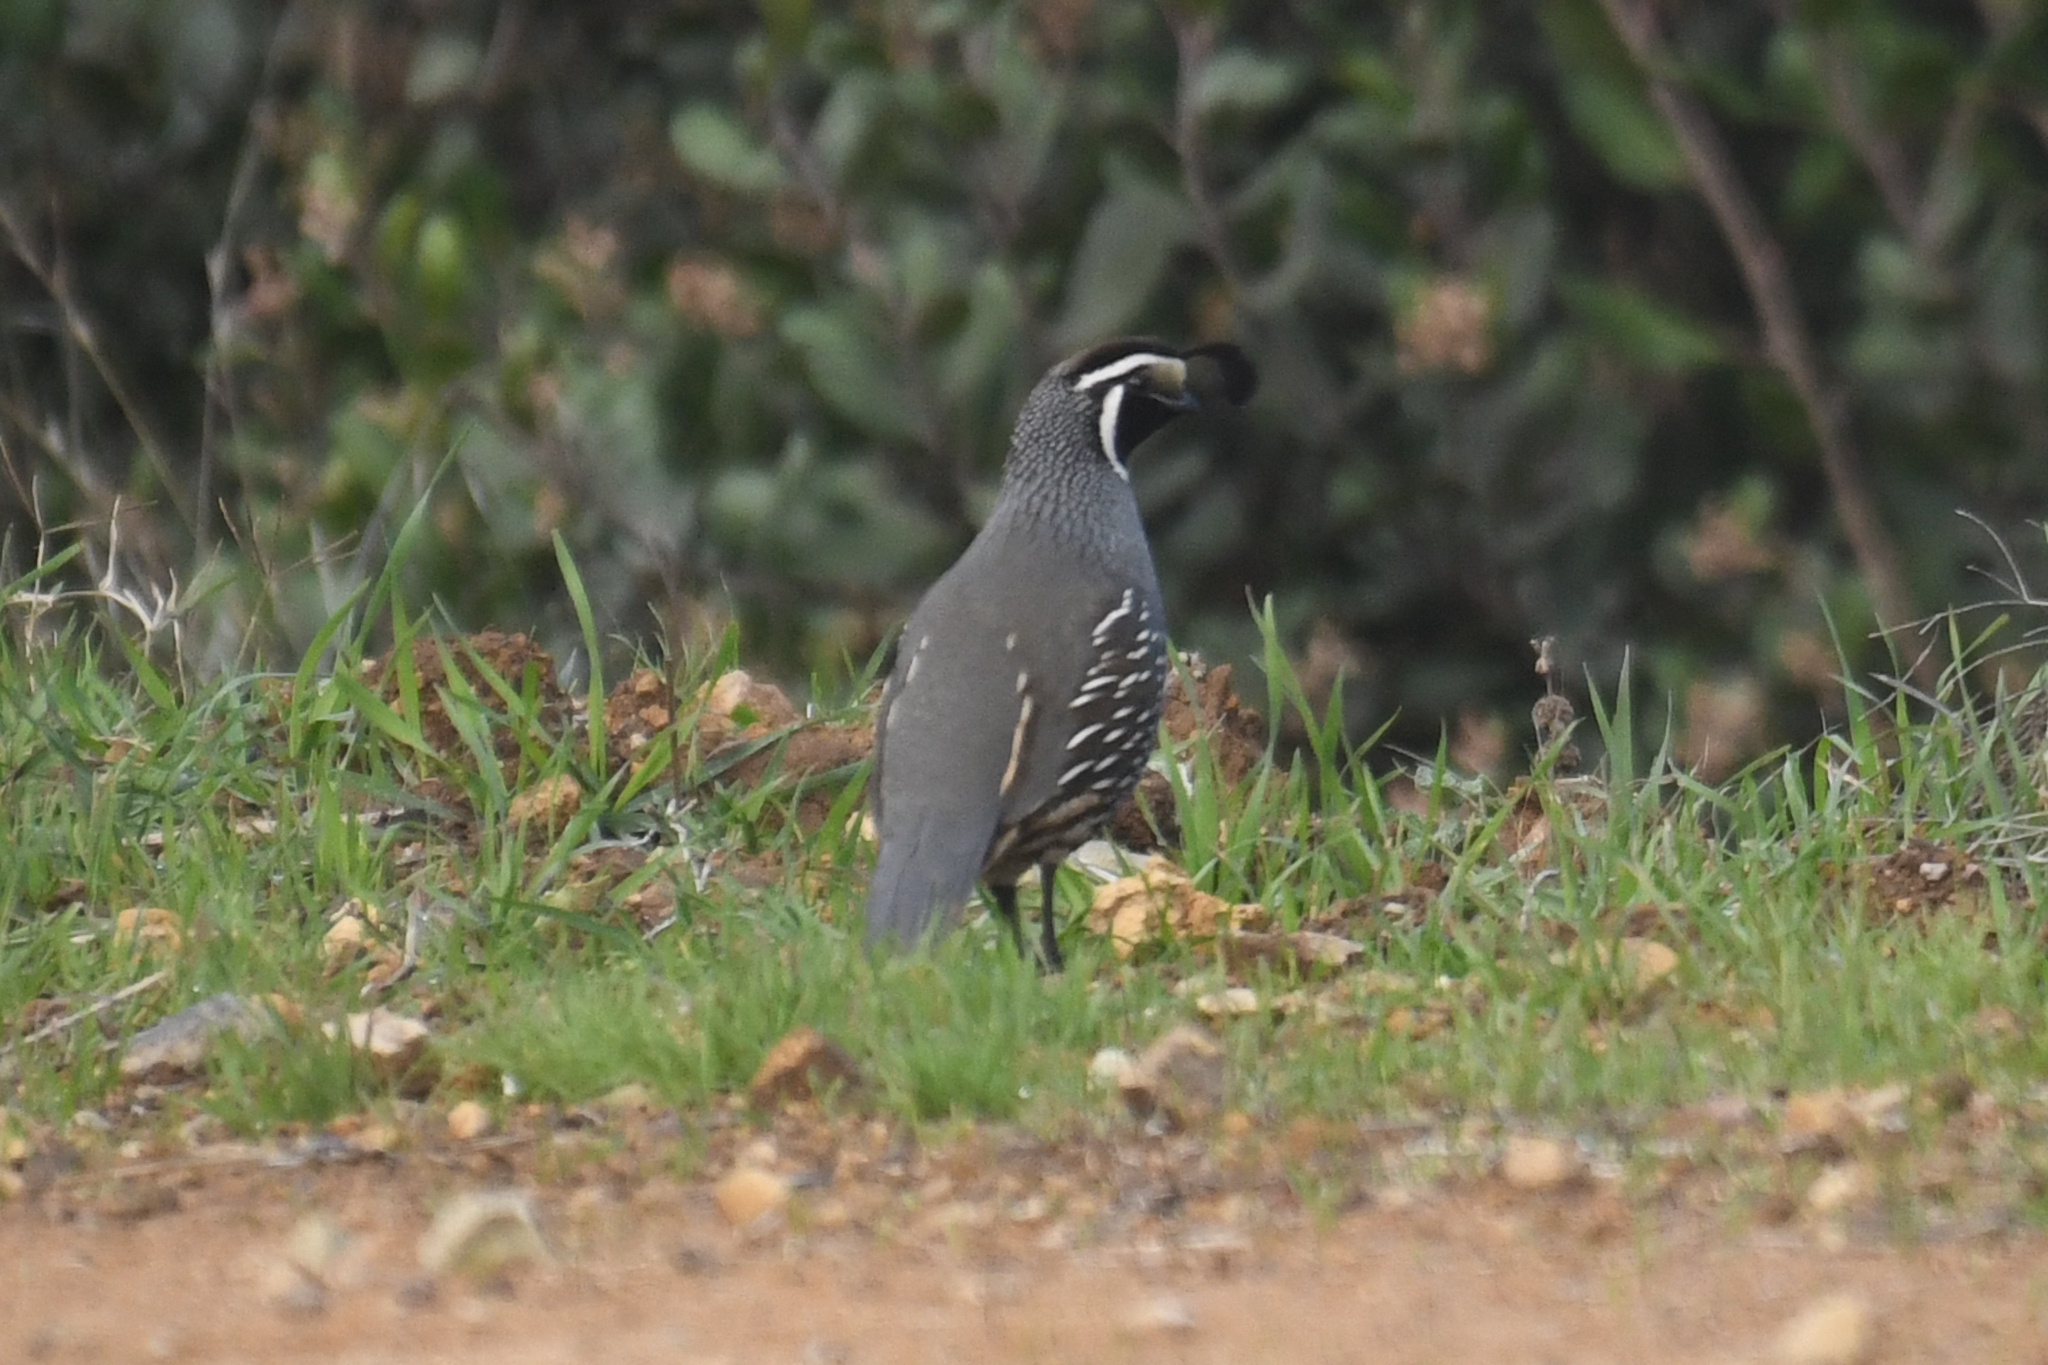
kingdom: Animalia
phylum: Chordata
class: Aves
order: Galliformes
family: Odontophoridae
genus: Callipepla
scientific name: Callipepla californica
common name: California quail
